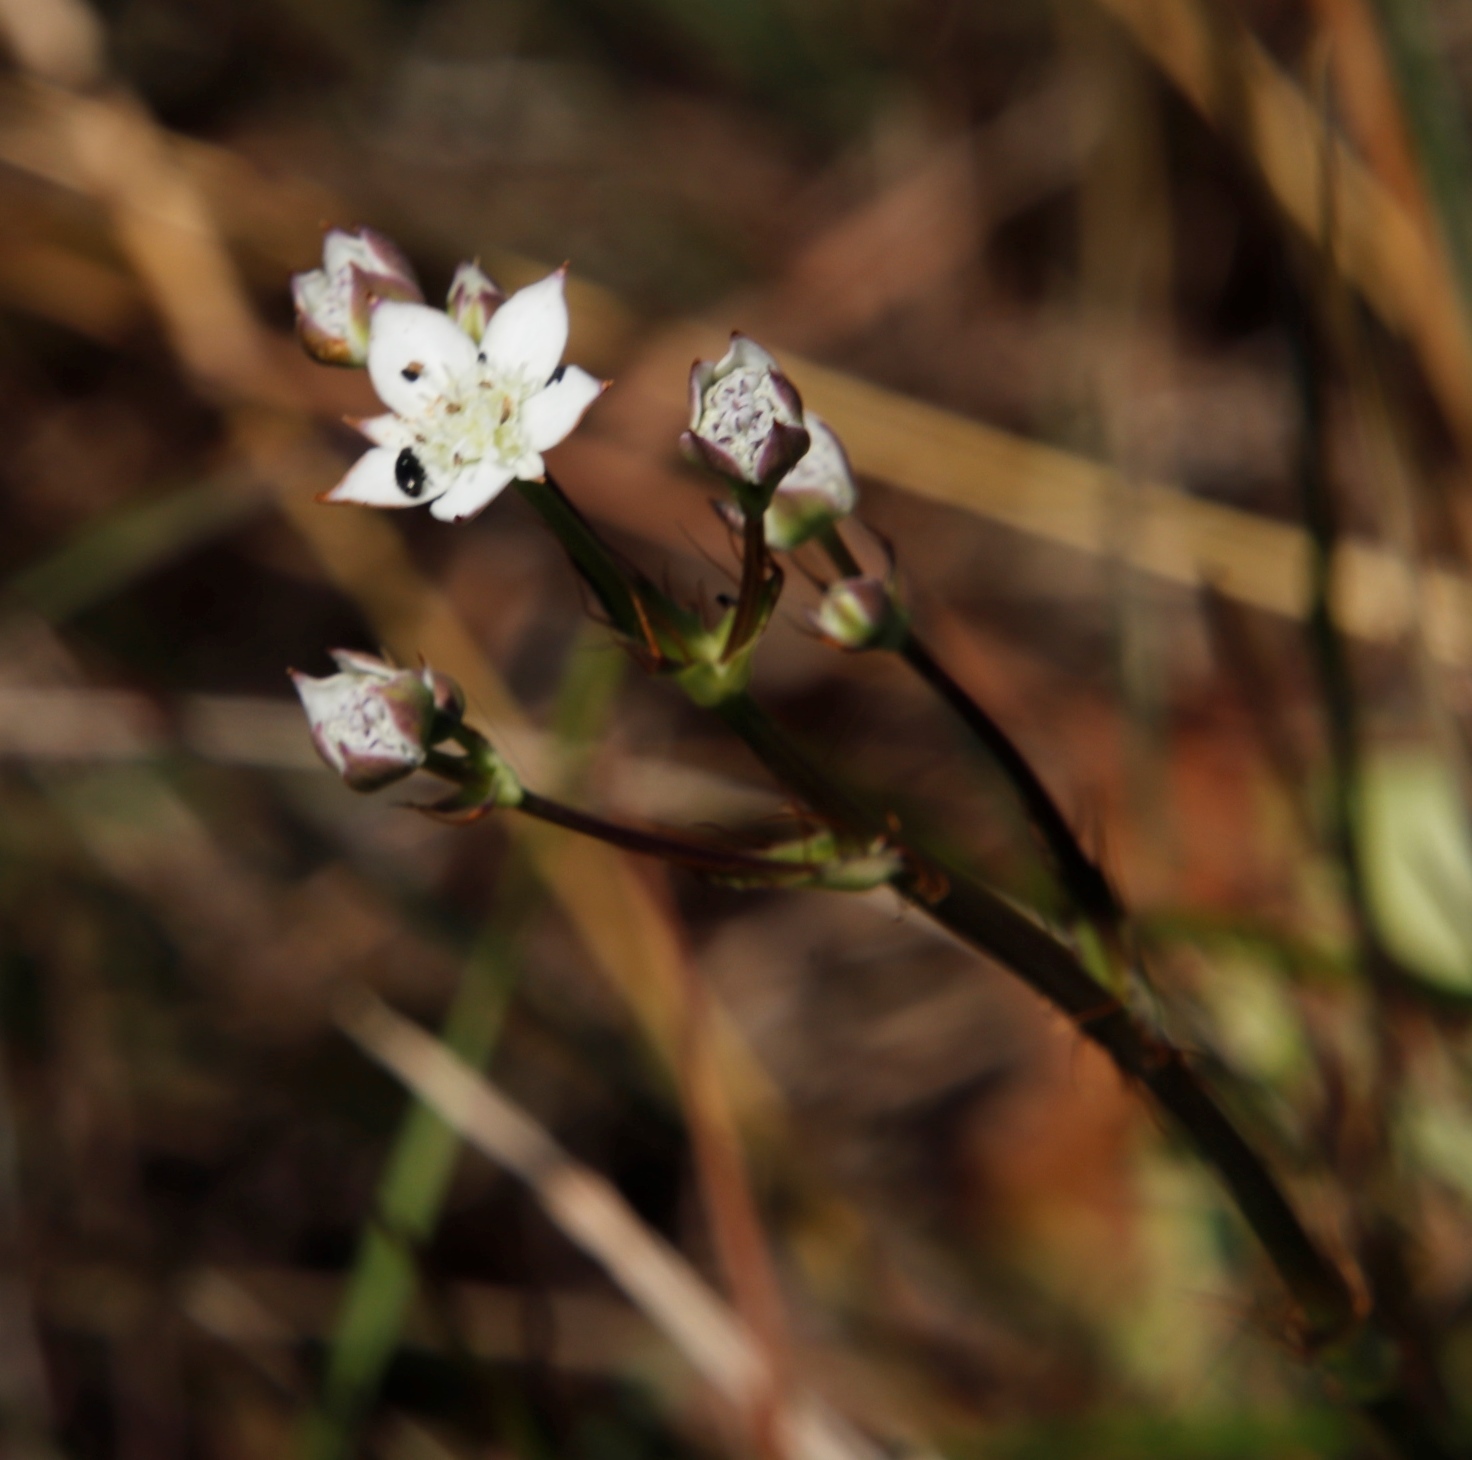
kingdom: Plantae
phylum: Tracheophyta
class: Magnoliopsida
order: Apiales
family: Apiaceae
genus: Alepidea
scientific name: Alepidea natalensis
